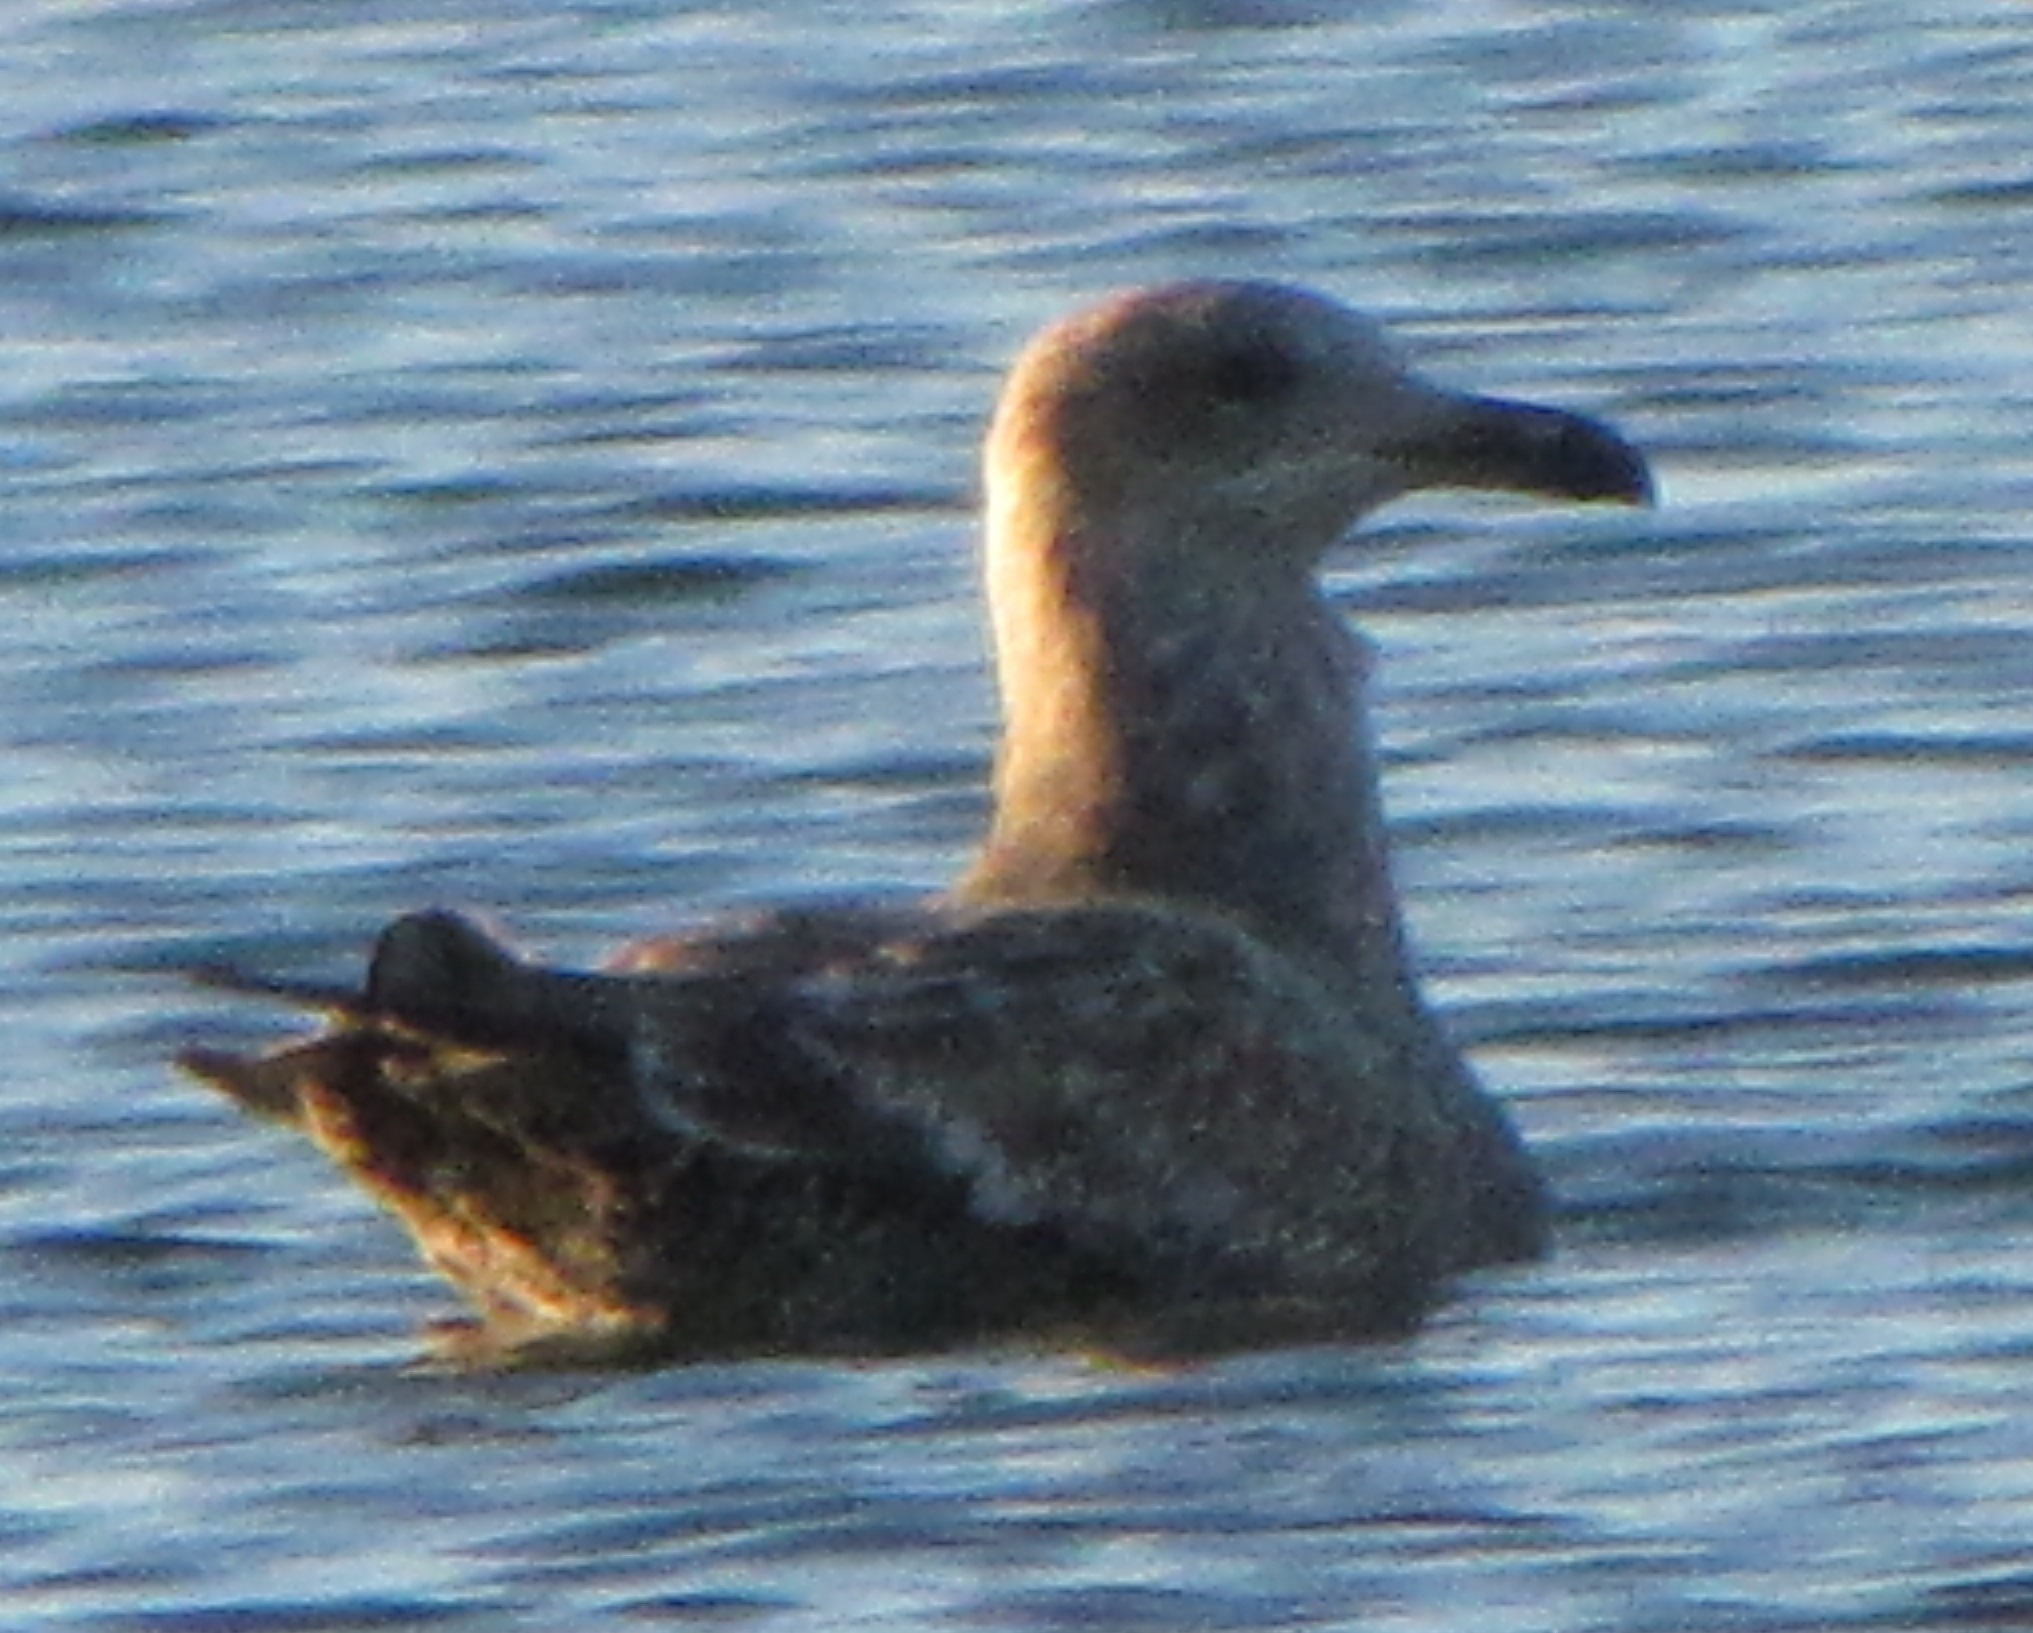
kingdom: Animalia
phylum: Chordata
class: Aves
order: Charadriiformes
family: Laridae
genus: Larus
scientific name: Larus argentatus
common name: Herring gull
